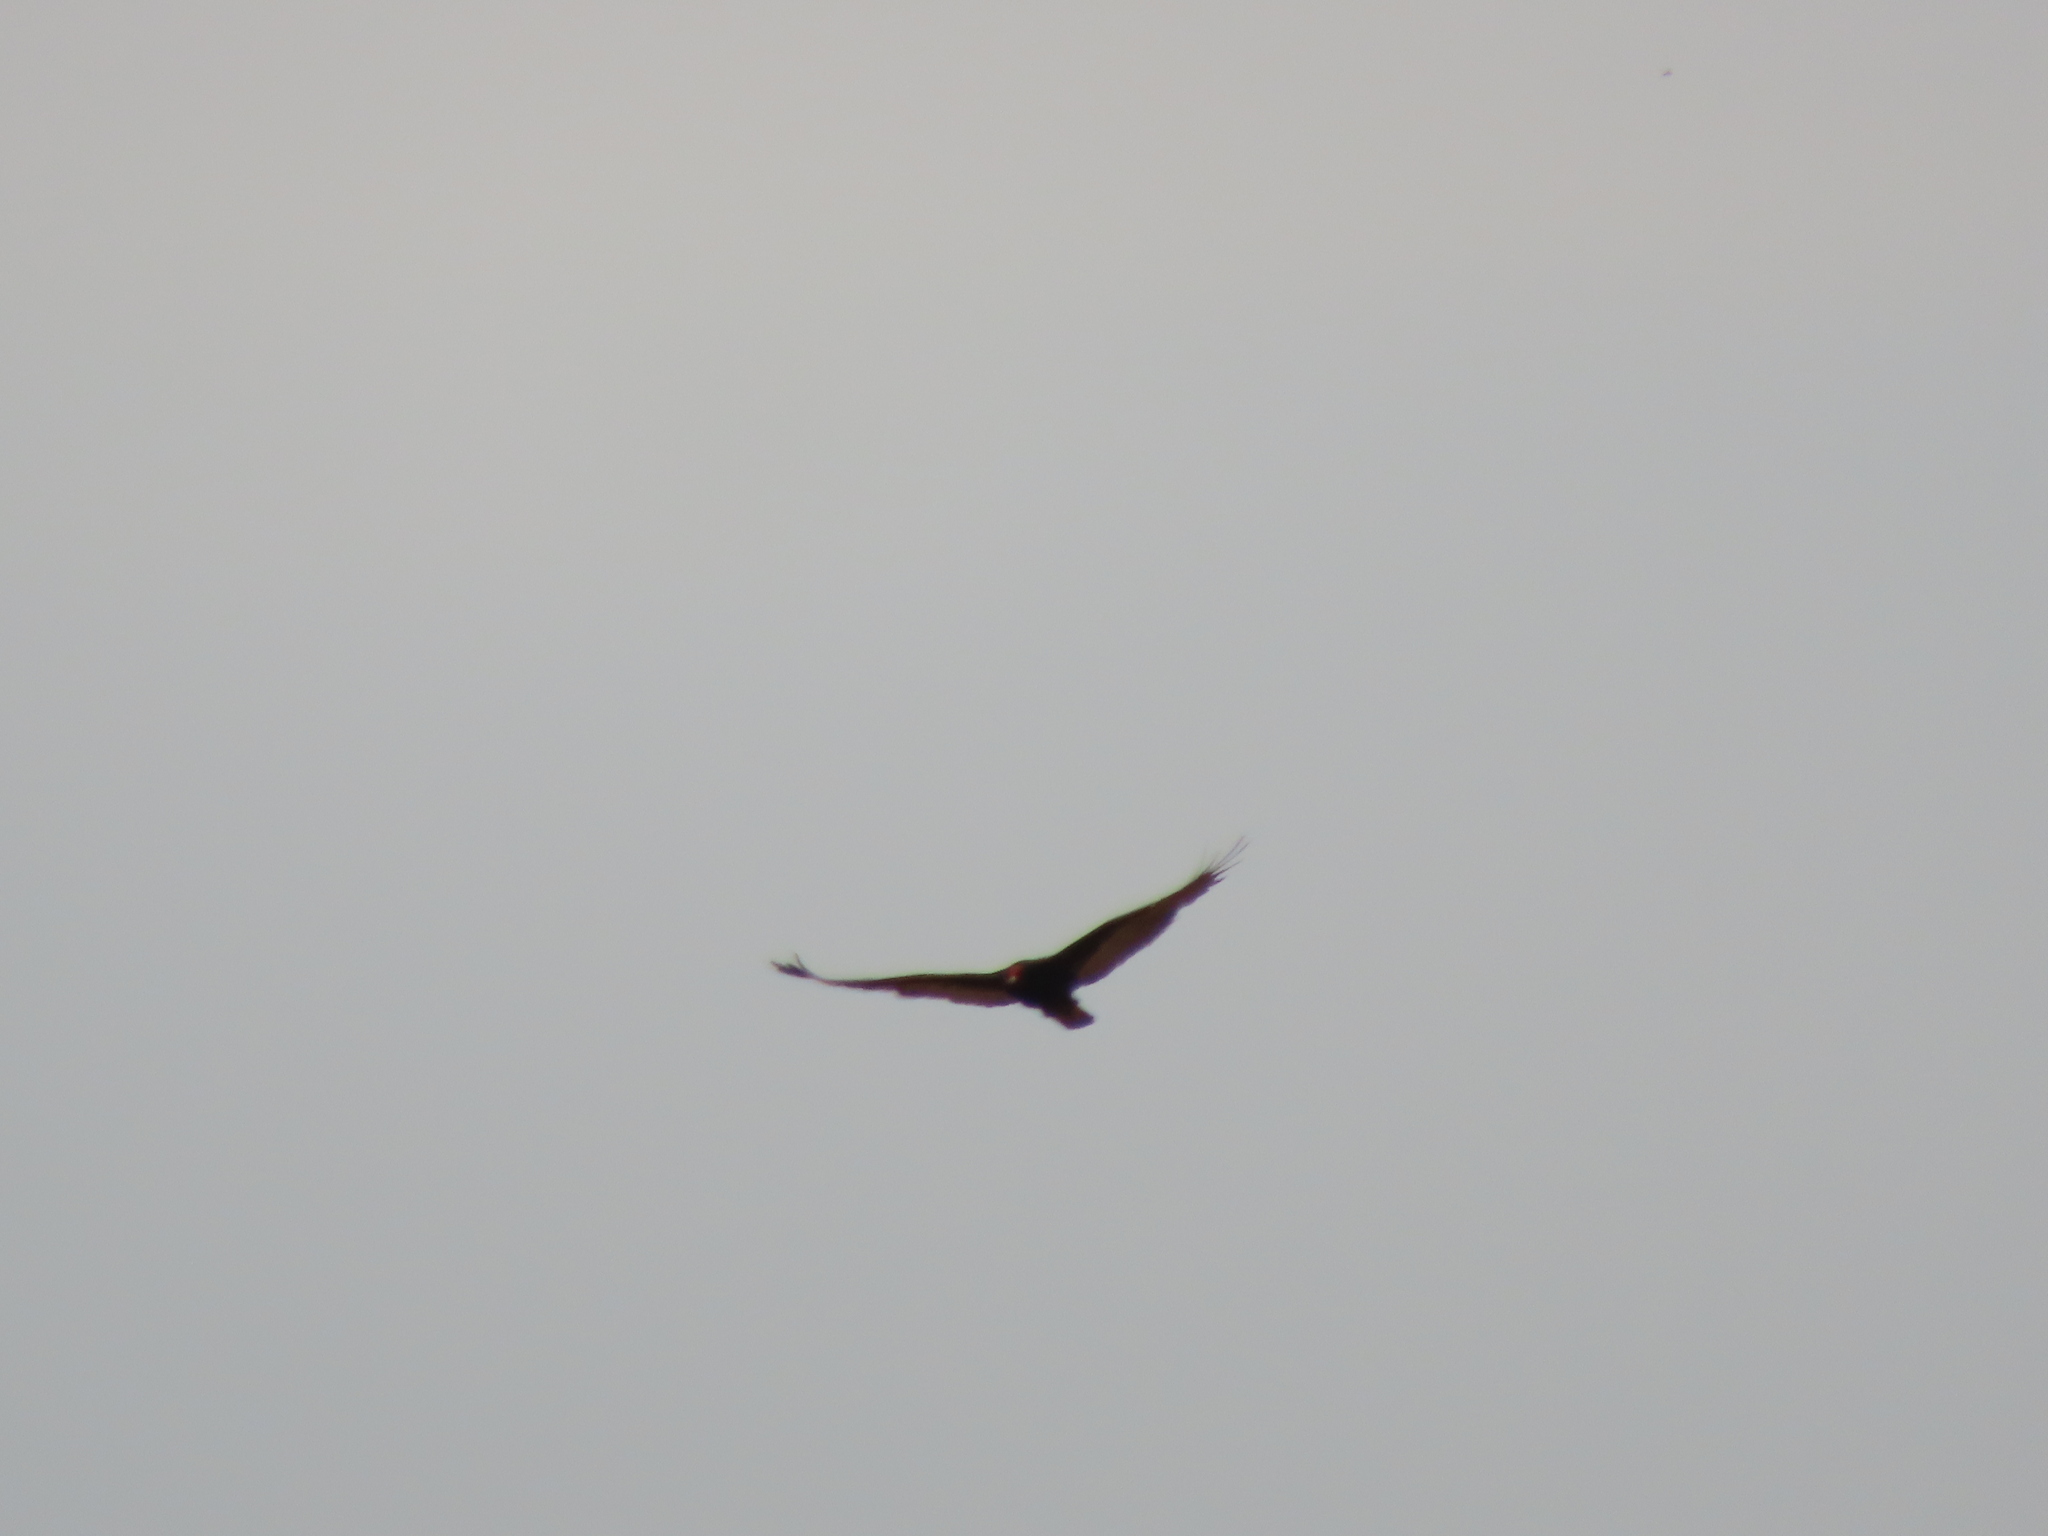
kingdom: Animalia
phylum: Chordata
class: Aves
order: Accipitriformes
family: Cathartidae
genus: Cathartes
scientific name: Cathartes aura
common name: Turkey vulture
